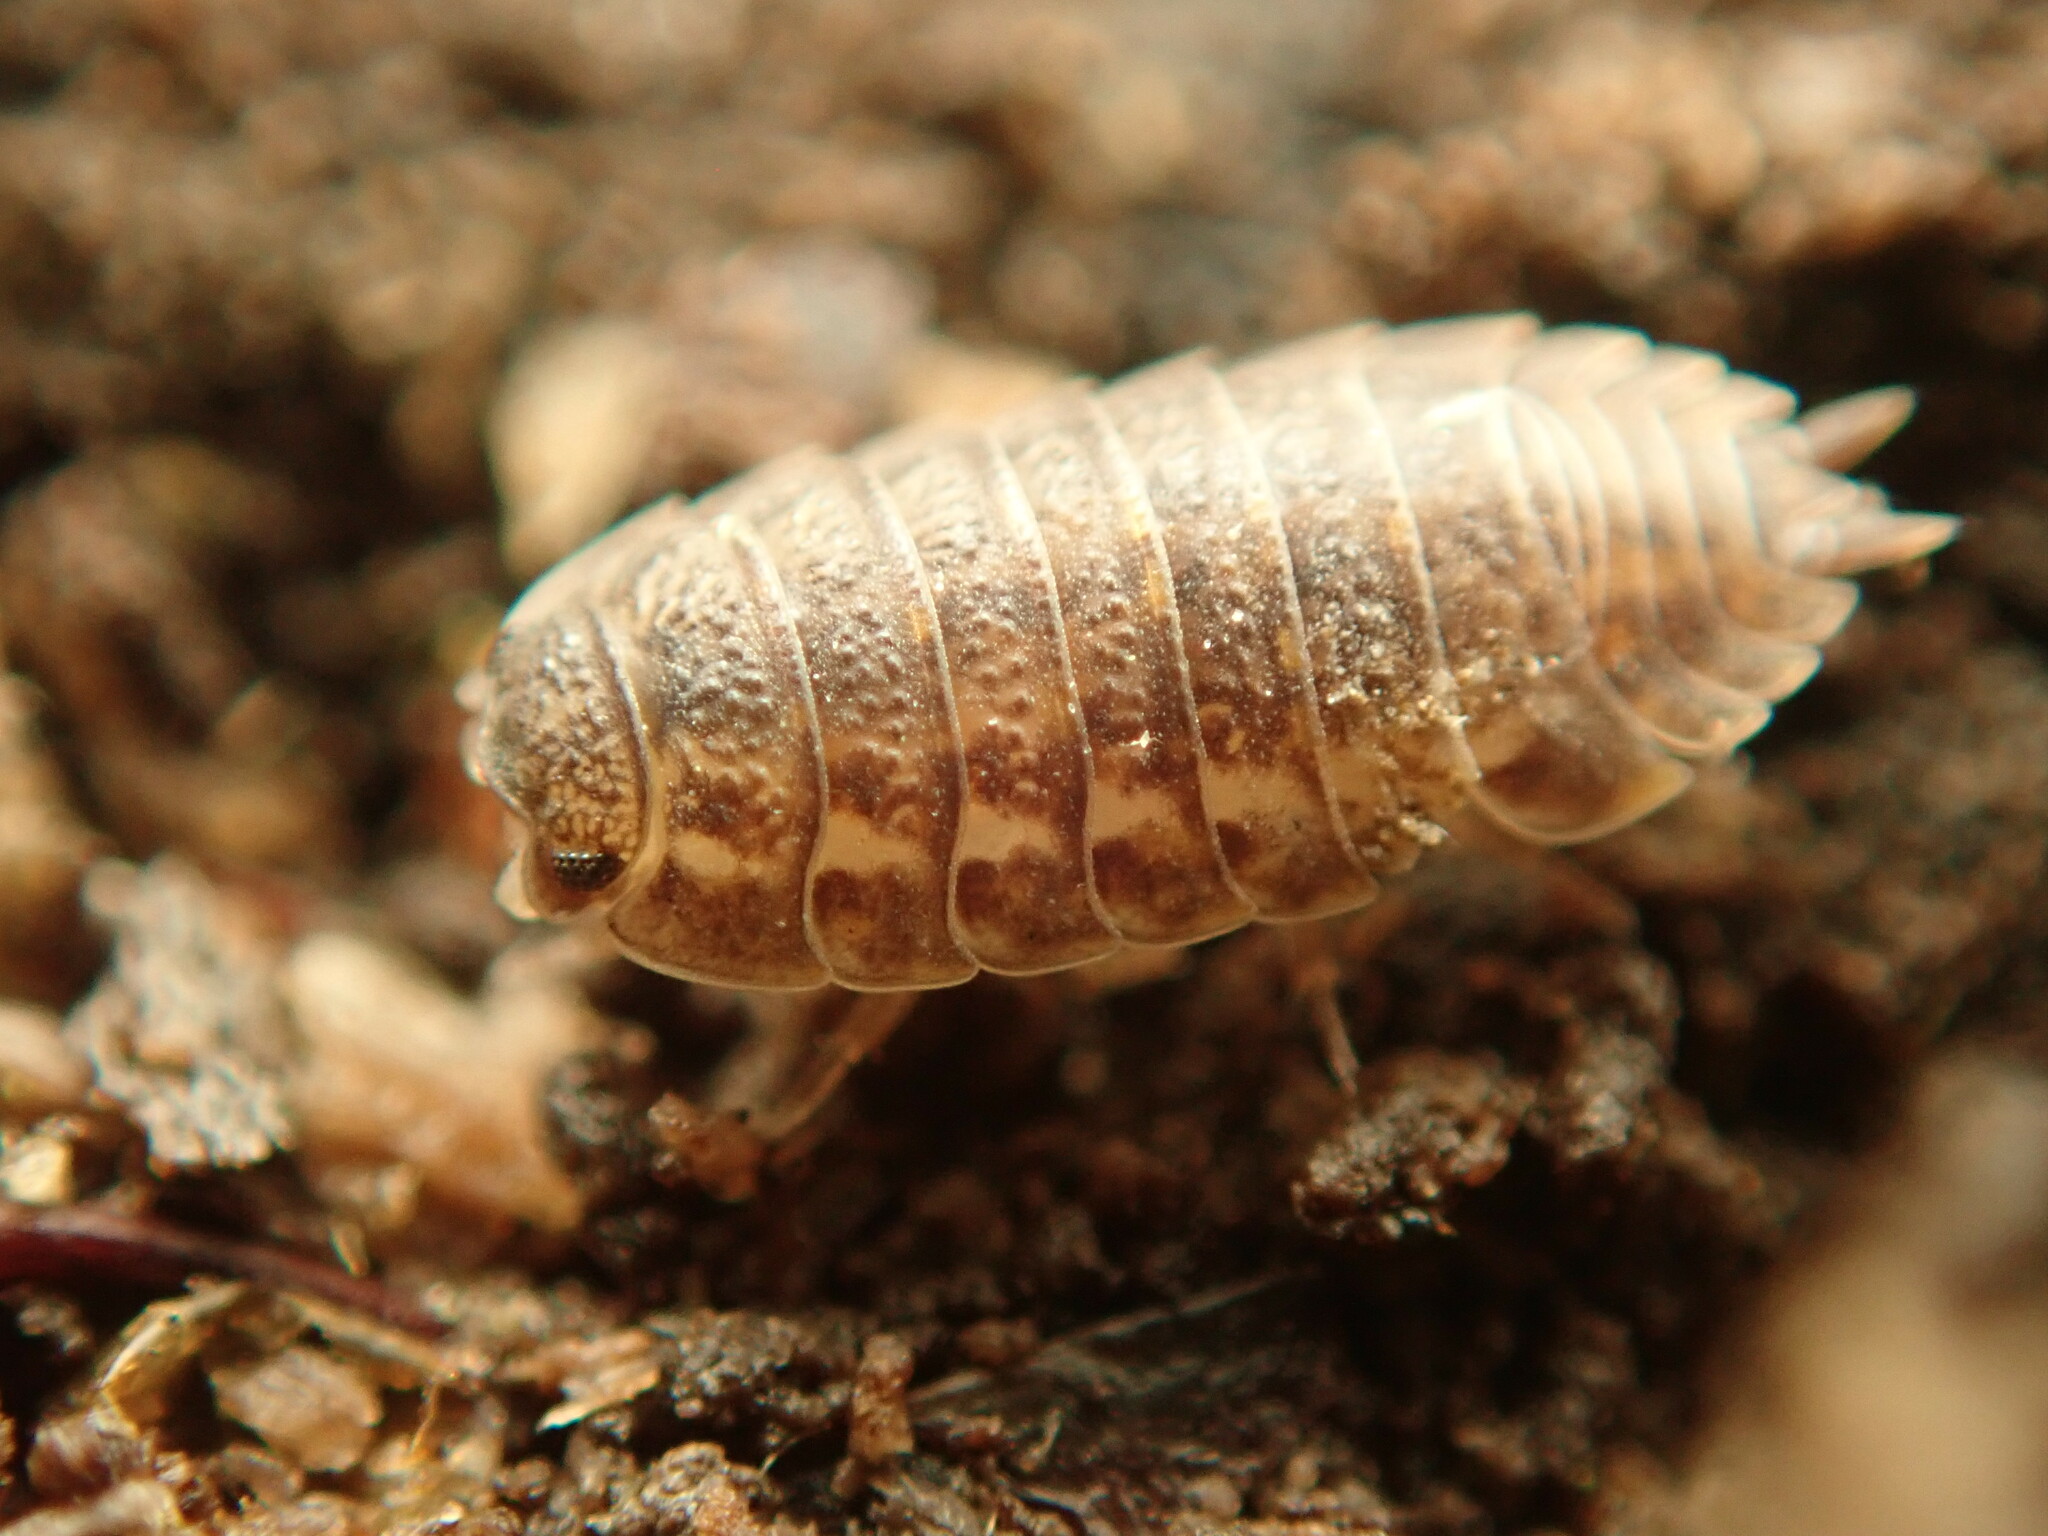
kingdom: Animalia
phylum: Arthropoda
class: Malacostraca
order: Isopoda
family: Trachelipodidae
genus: Trachelipus
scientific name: Trachelipus rathkii
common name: Isopod
